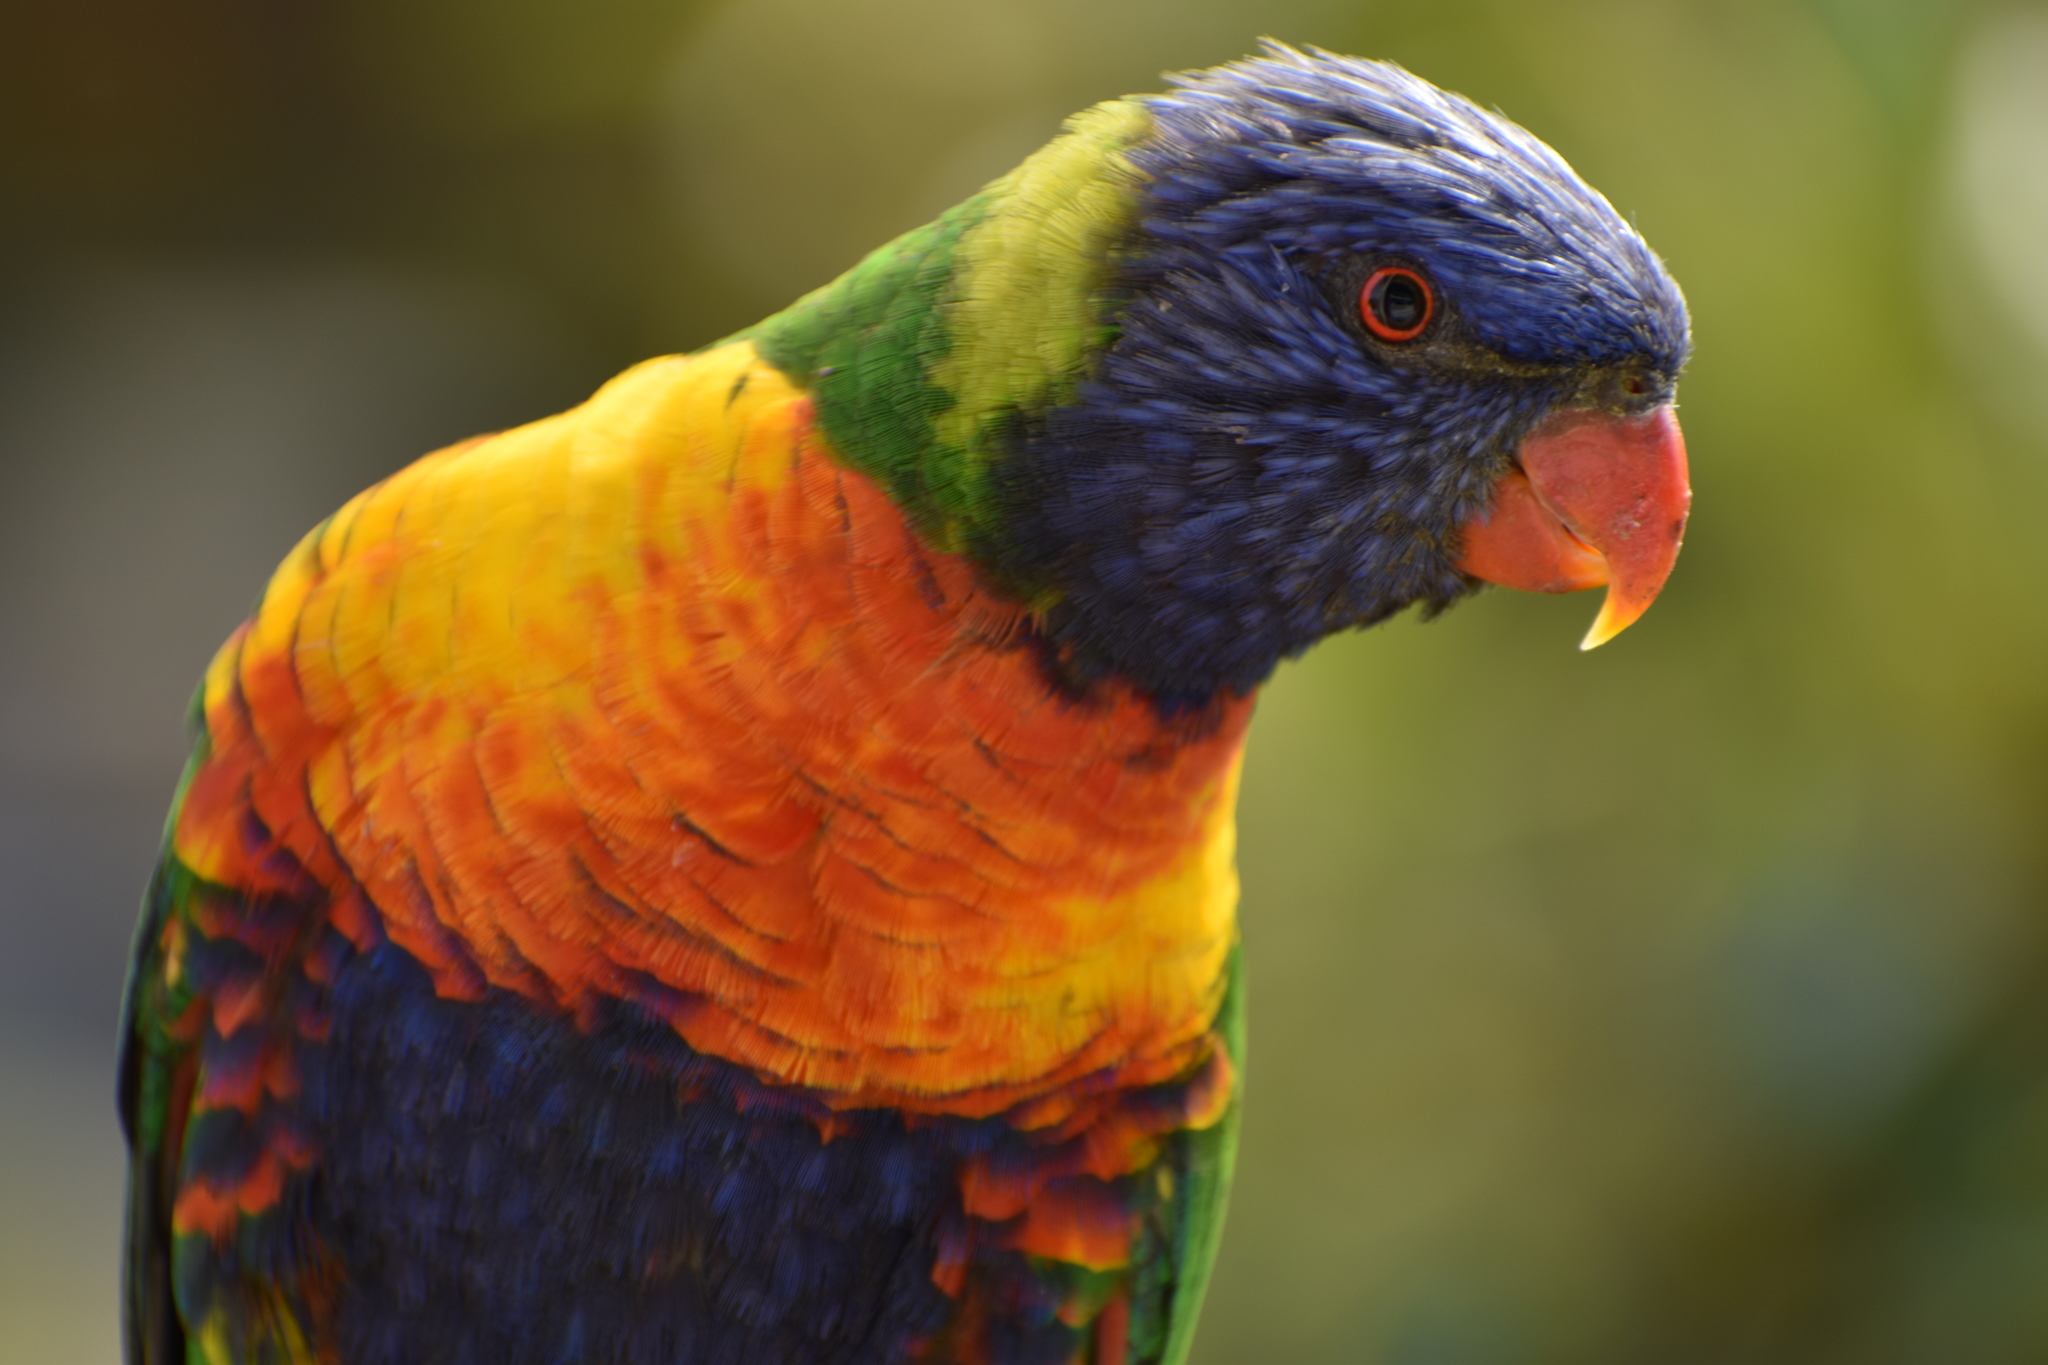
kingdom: Animalia
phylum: Chordata
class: Aves
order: Psittaciformes
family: Psittacidae
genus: Trichoglossus
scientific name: Trichoglossus haematodus
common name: Coconut lorikeet
